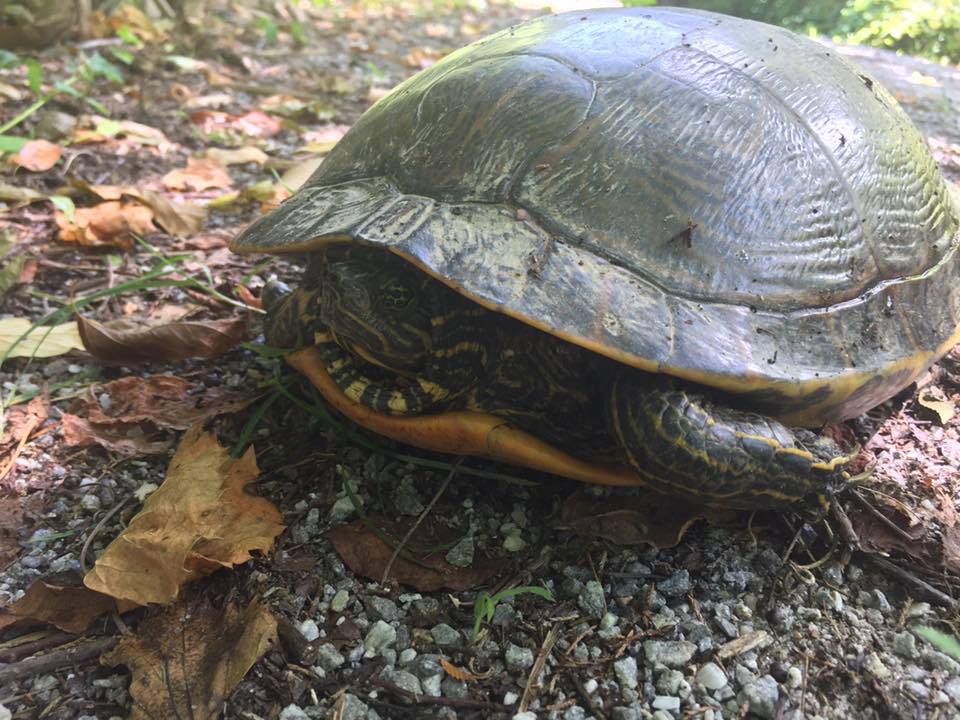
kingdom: Animalia
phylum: Chordata
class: Testudines
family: Emydidae
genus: Pseudemys
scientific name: Pseudemys concinna
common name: Eastern river cooter
